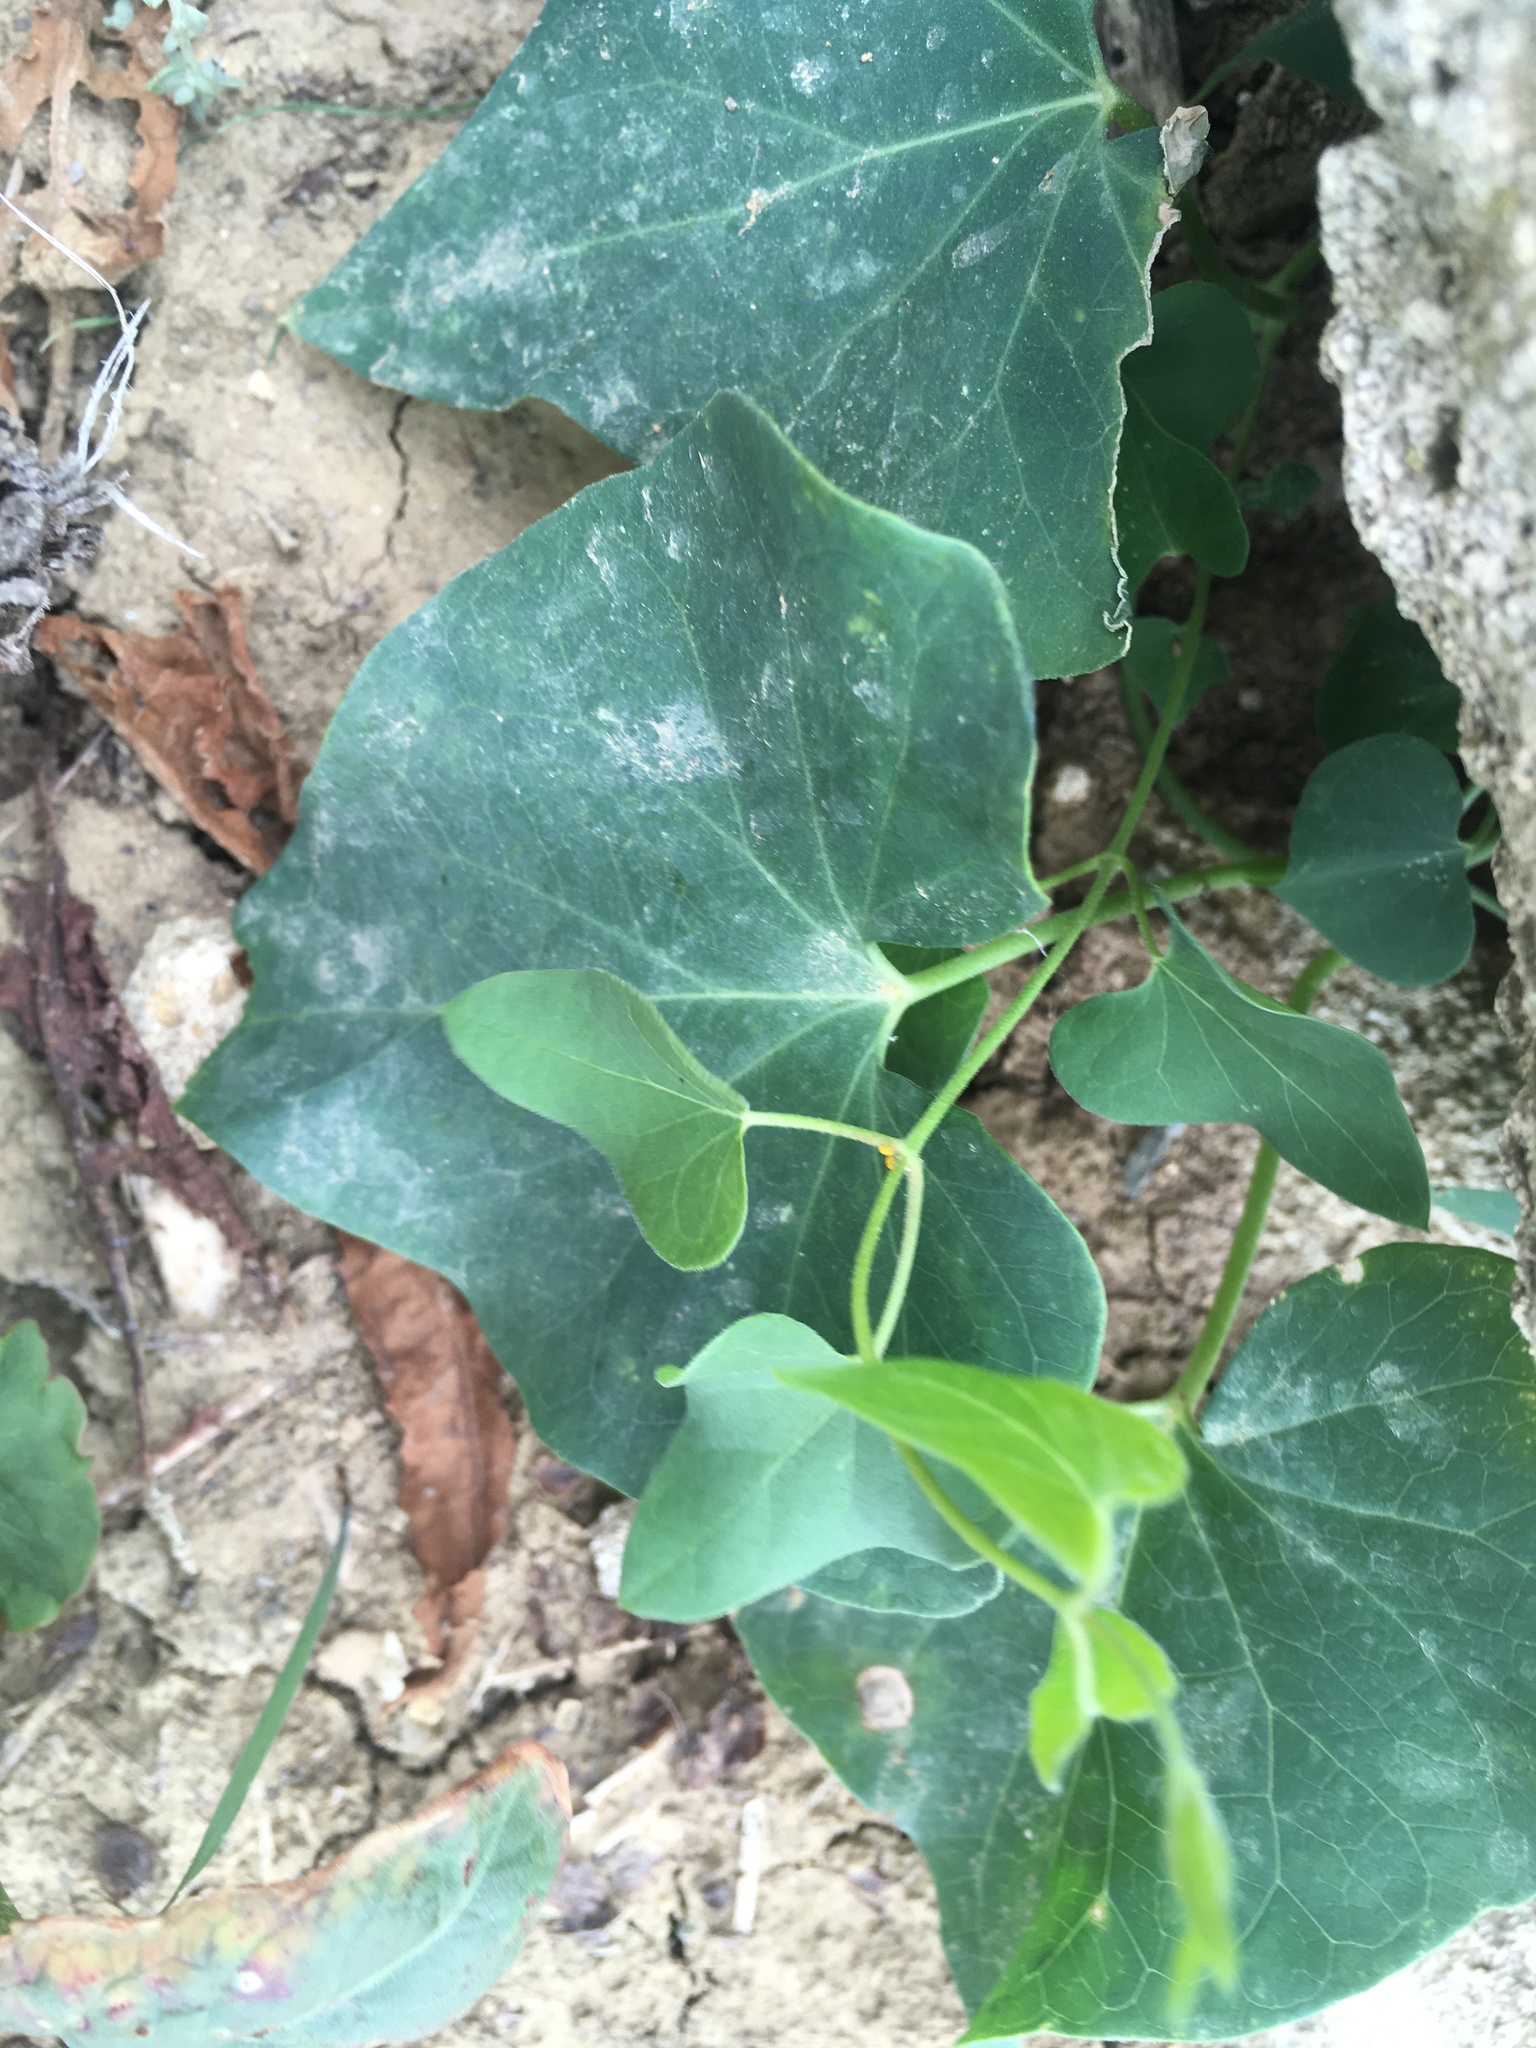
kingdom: Plantae
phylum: Tracheophyta
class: Magnoliopsida
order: Piperales
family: Aristolochiaceae
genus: Aristolochia
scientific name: Aristolochia clematitis
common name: Birthwort
